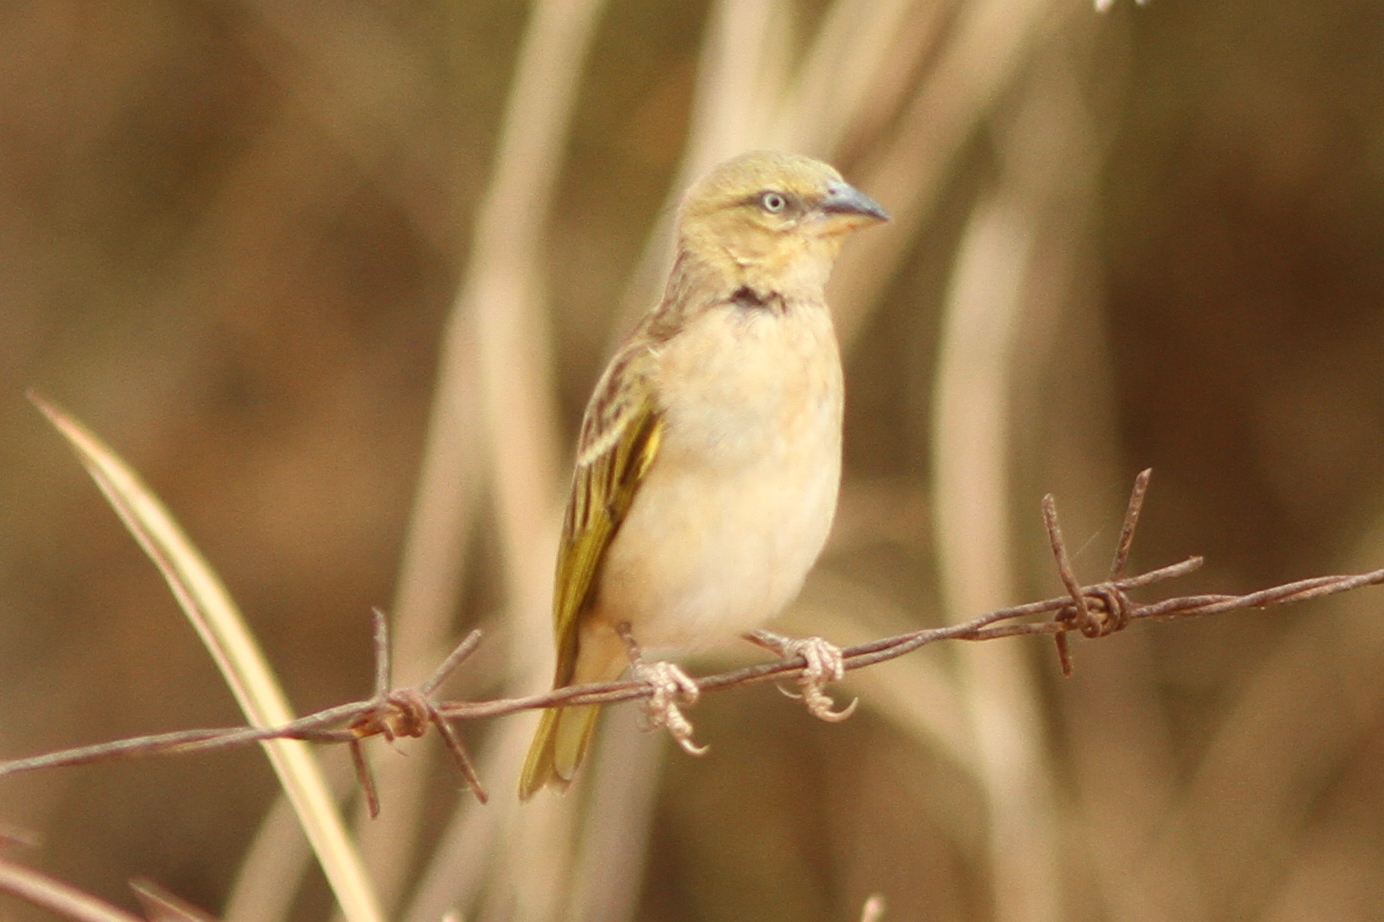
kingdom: Animalia
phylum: Chordata
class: Aves
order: Passeriformes
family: Ploceidae
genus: Ploceus
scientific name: Ploceus melanocephalus
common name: Black-headed weaver
